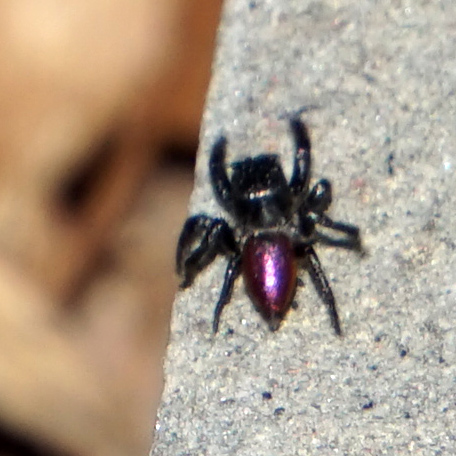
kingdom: Animalia
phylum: Arthropoda
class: Arachnida
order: Araneae
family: Salticidae
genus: Habronattus
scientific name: Habronattus decorus
